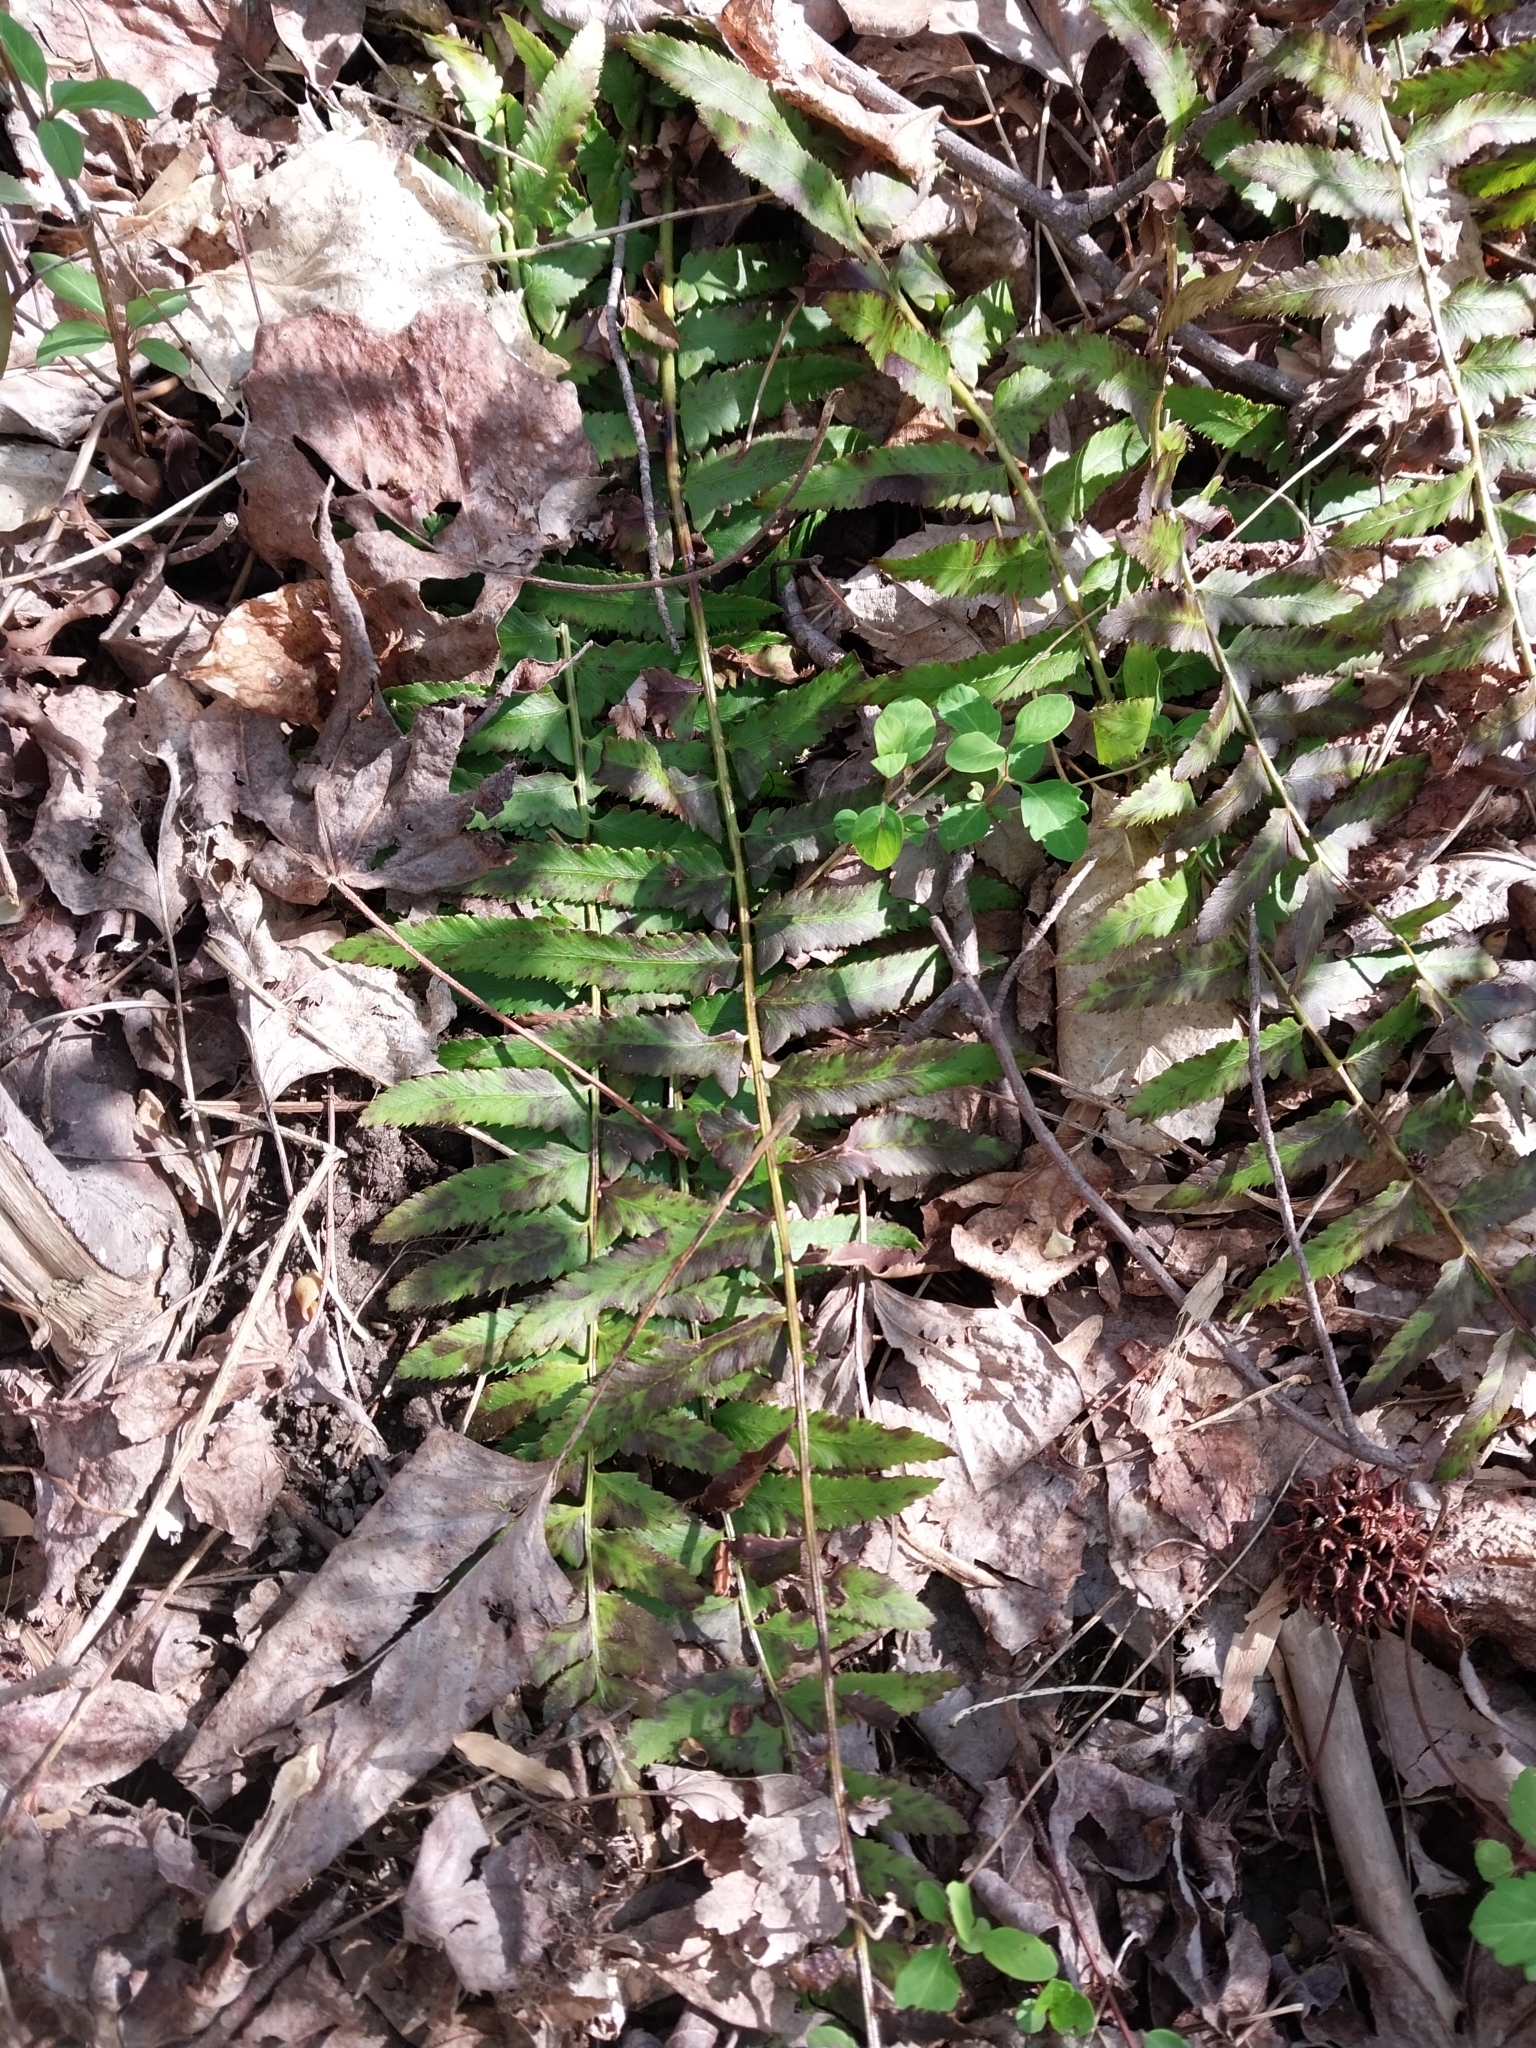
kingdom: Plantae
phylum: Tracheophyta
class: Polypodiopsida
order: Polypodiales
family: Dryopteridaceae
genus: Polystichum
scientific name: Polystichum acrostichoides
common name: Christmas fern
